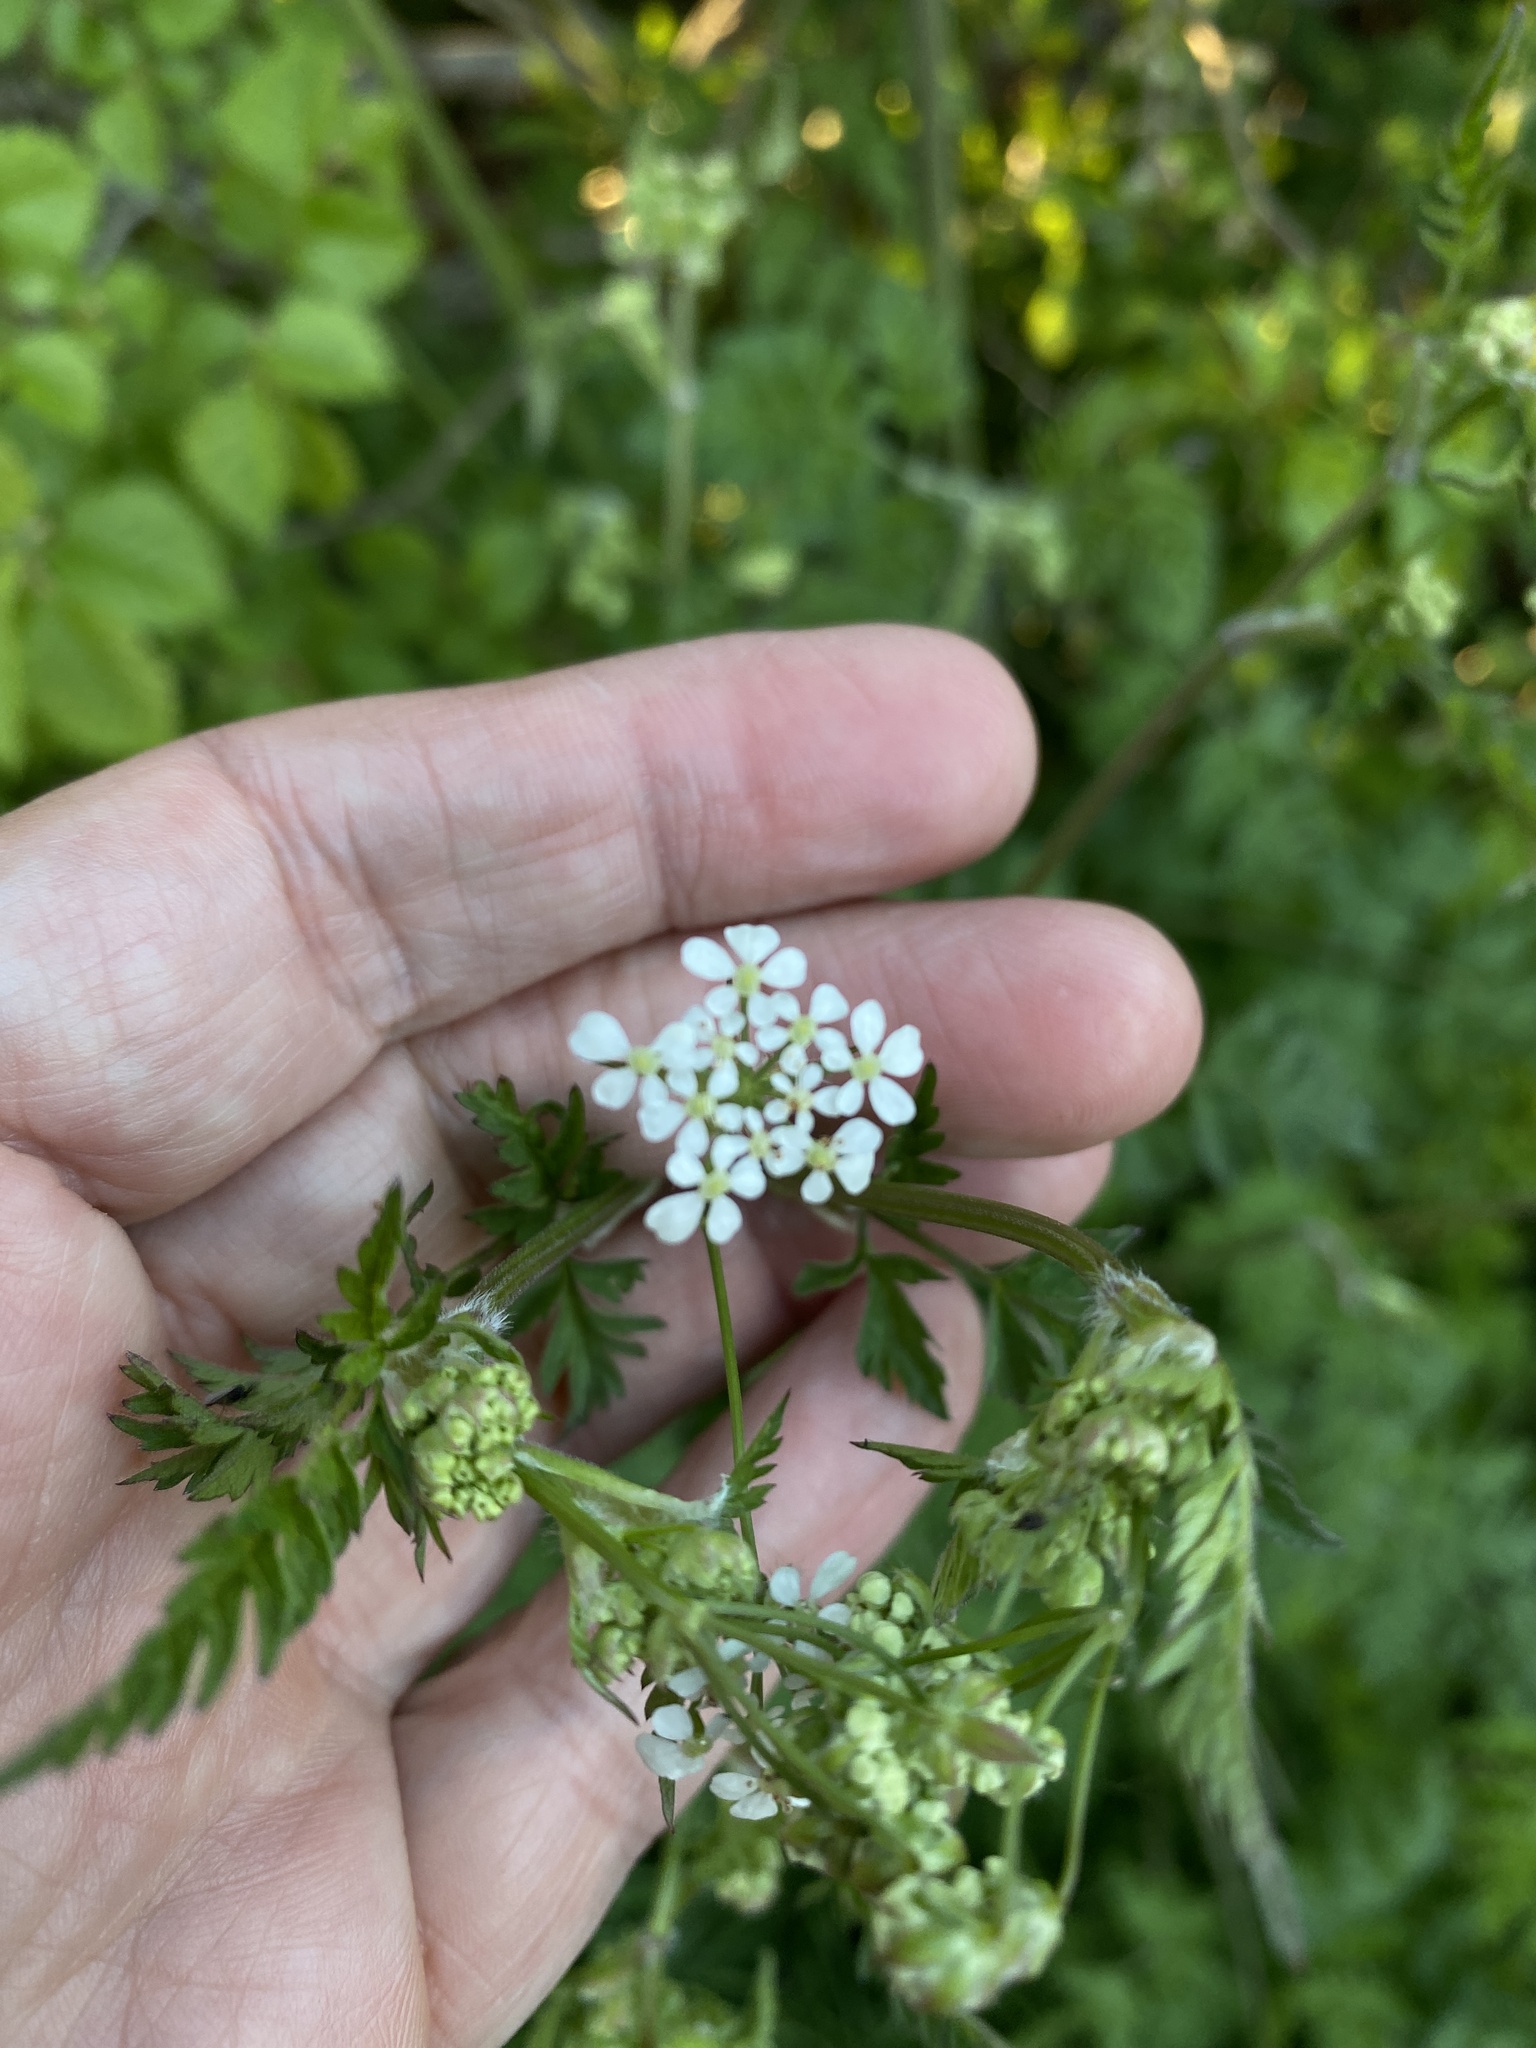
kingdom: Plantae
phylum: Tracheophyta
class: Magnoliopsida
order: Apiales
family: Apiaceae
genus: Anthriscus
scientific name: Anthriscus sylvestris
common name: Cow parsley
